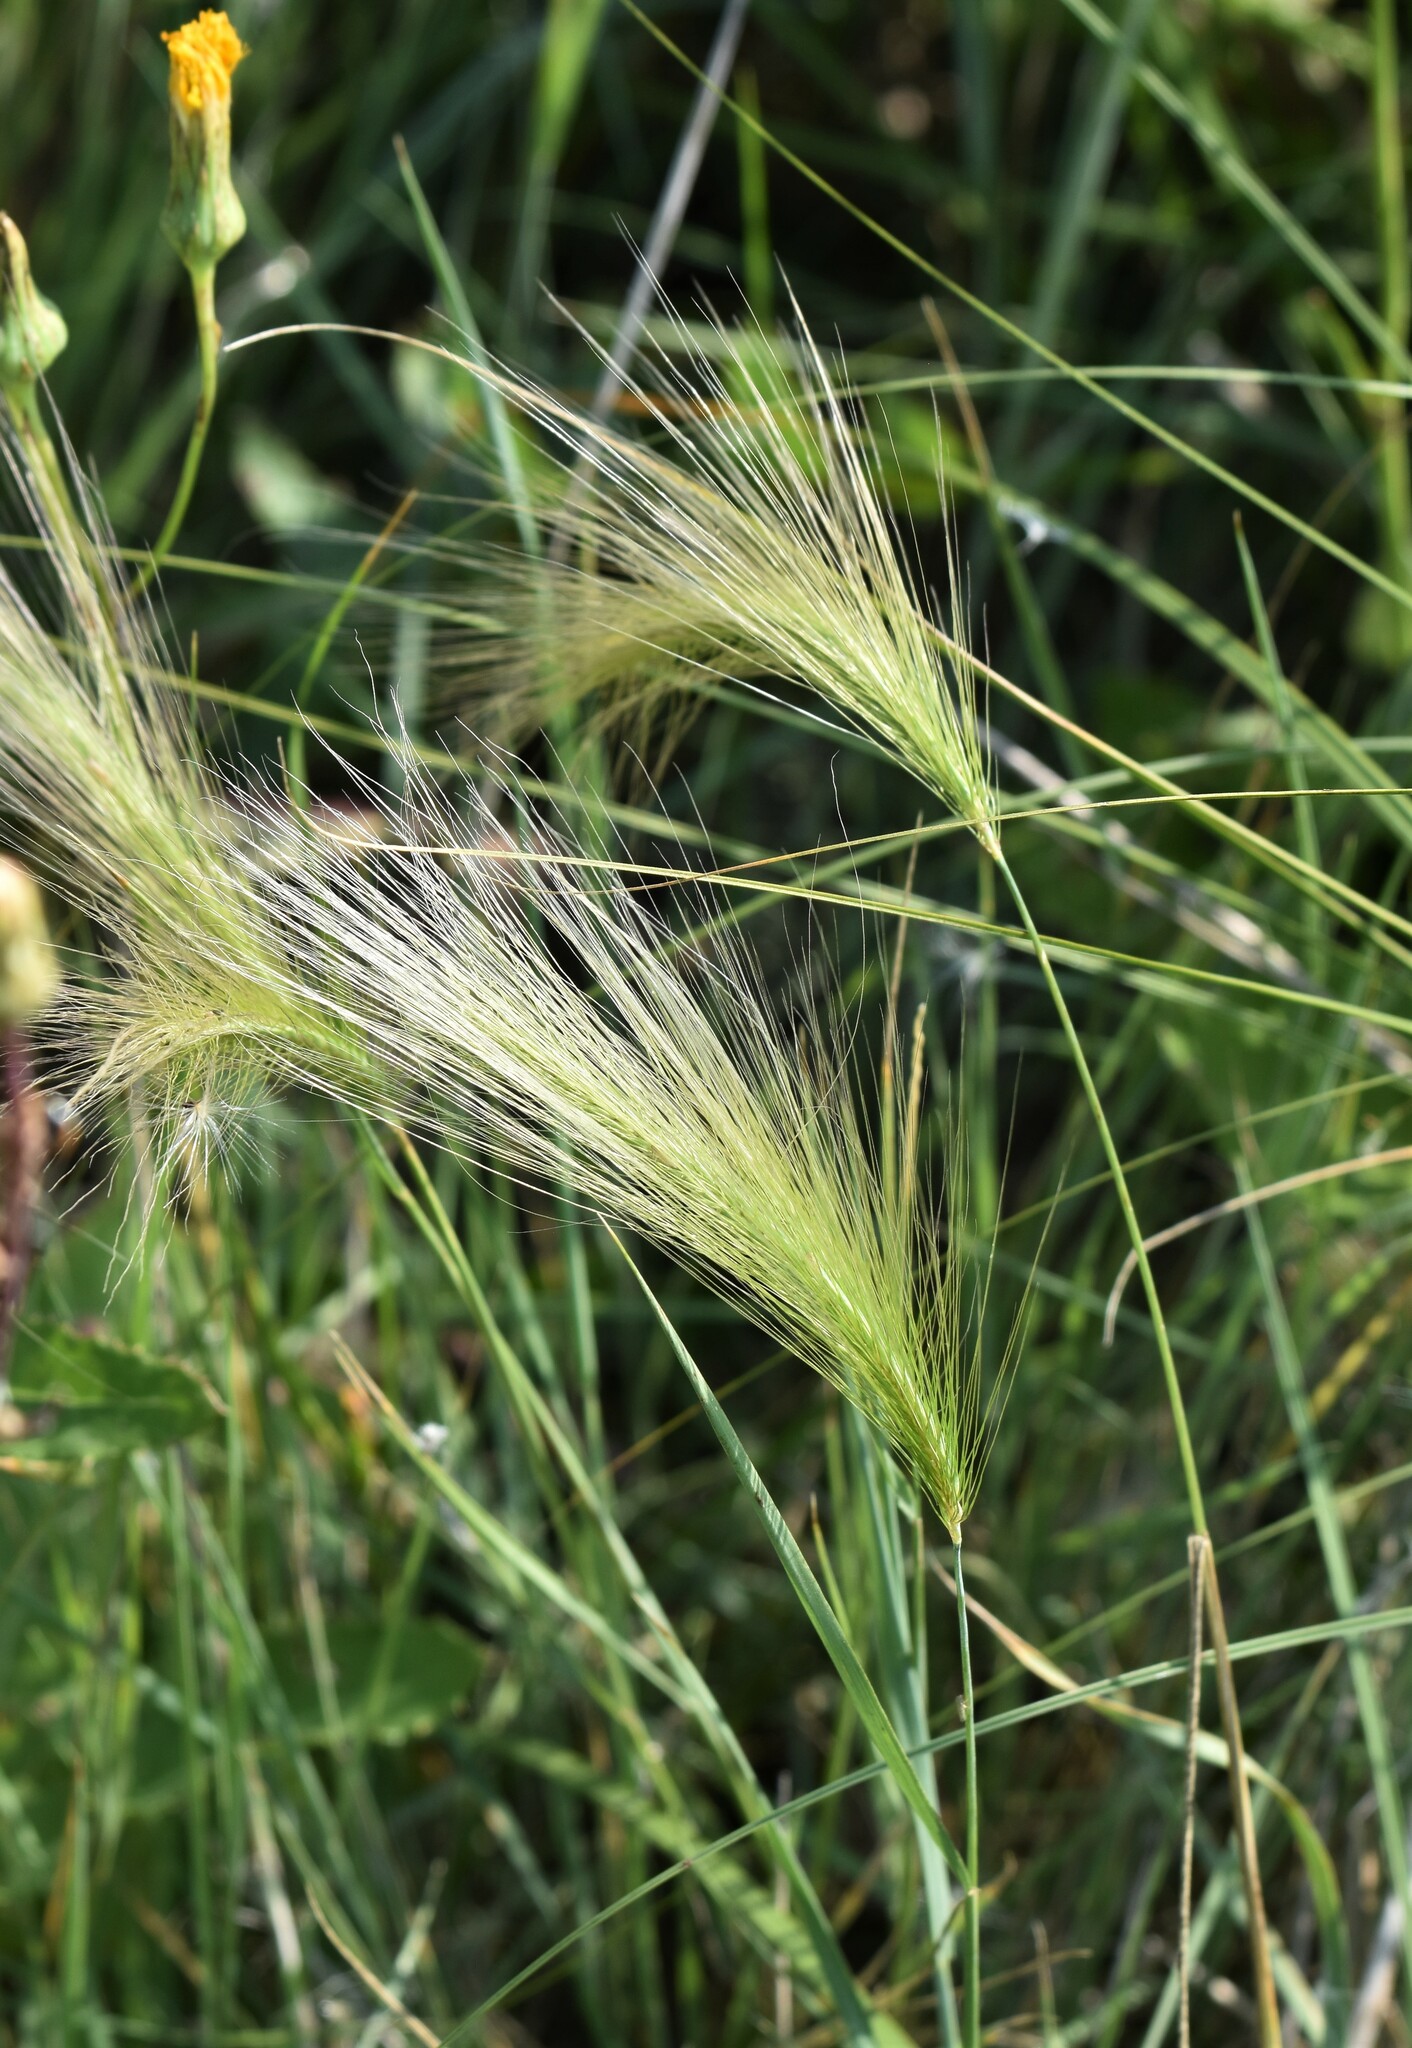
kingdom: Plantae
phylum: Tracheophyta
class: Liliopsida
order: Poales
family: Poaceae
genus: Hordeum
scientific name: Hordeum jubatum
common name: Foxtail barley
